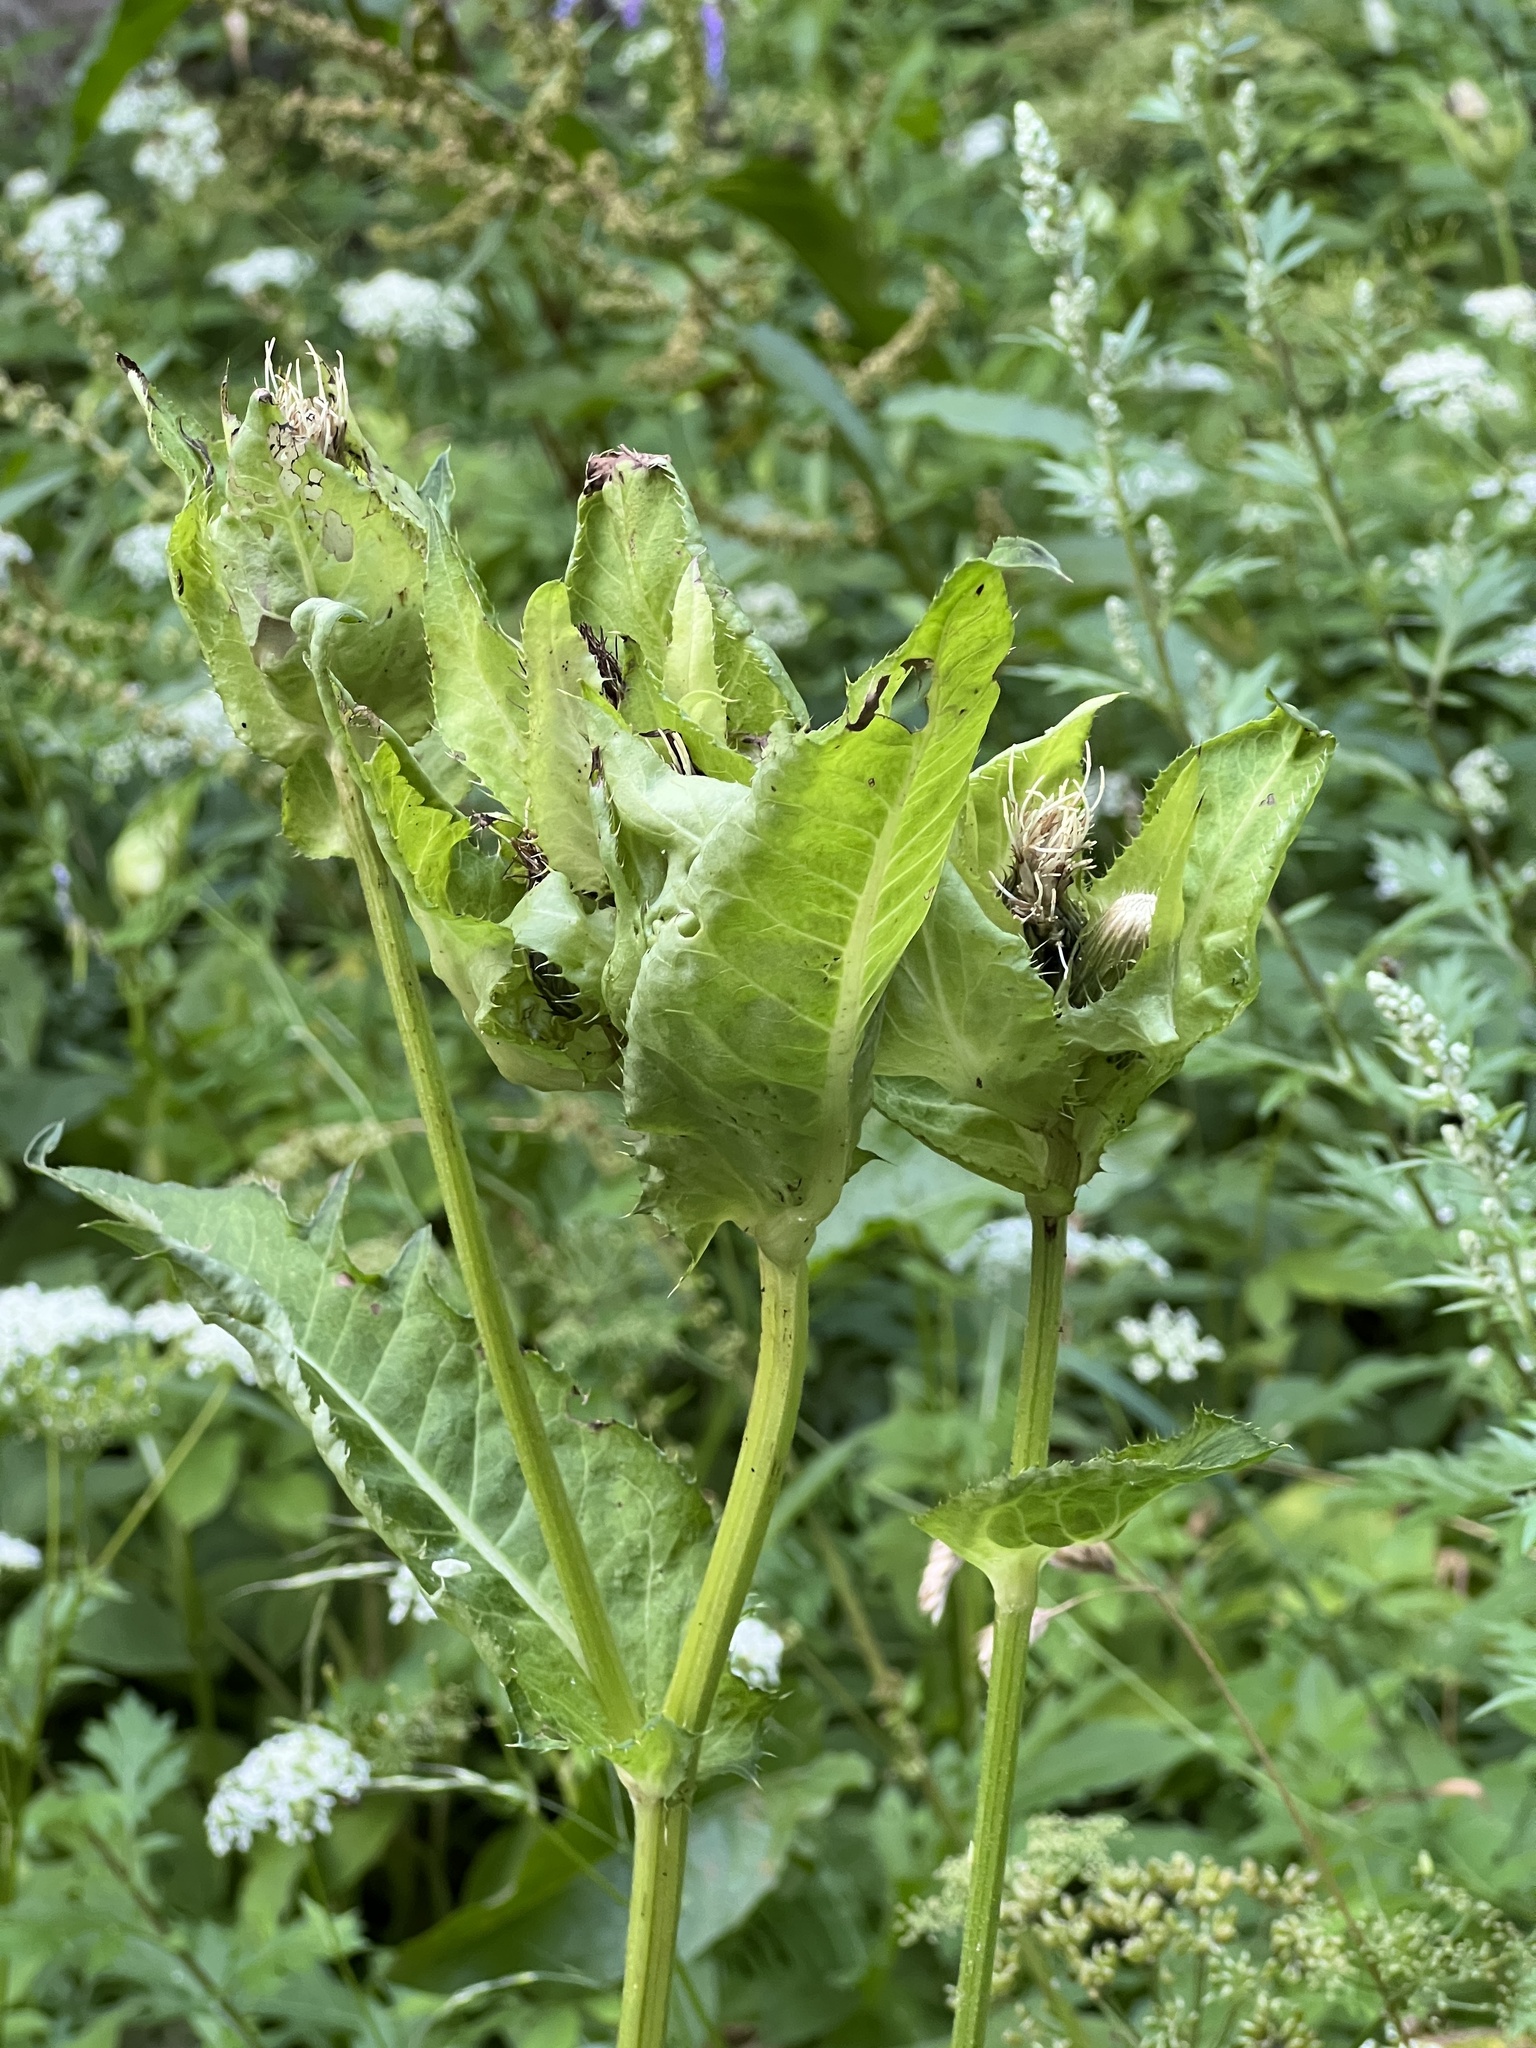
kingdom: Plantae
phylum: Tracheophyta
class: Magnoliopsida
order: Asterales
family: Asteraceae
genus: Cirsium
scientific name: Cirsium oleraceum
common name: Cabbage thistle
